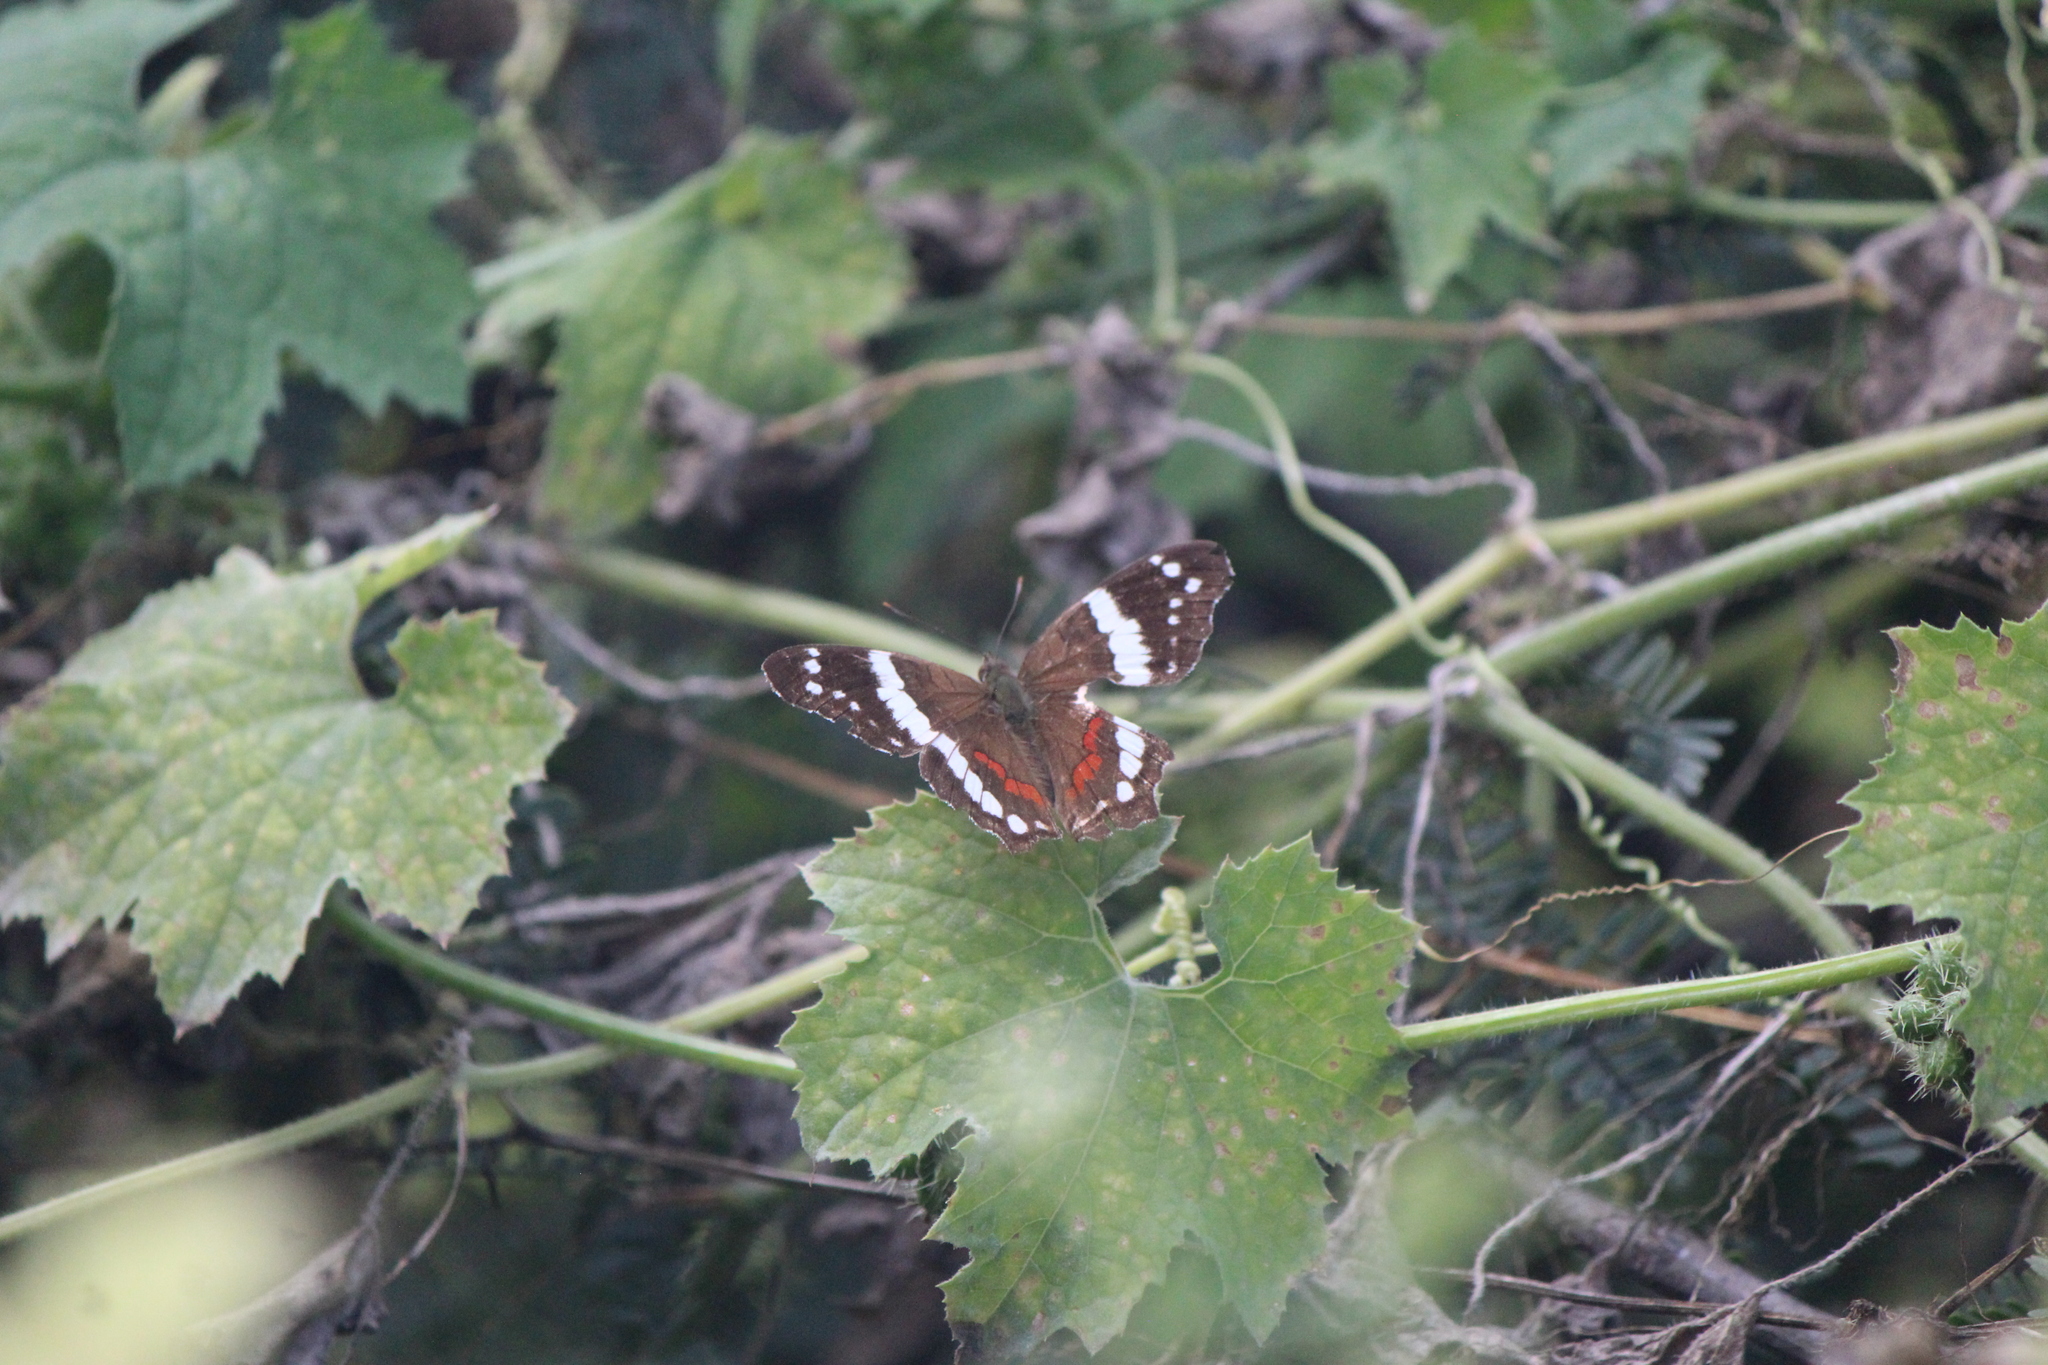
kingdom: Animalia
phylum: Arthropoda
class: Insecta
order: Lepidoptera
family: Nymphalidae
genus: Anartia
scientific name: Anartia fatima
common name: Banded peacock
